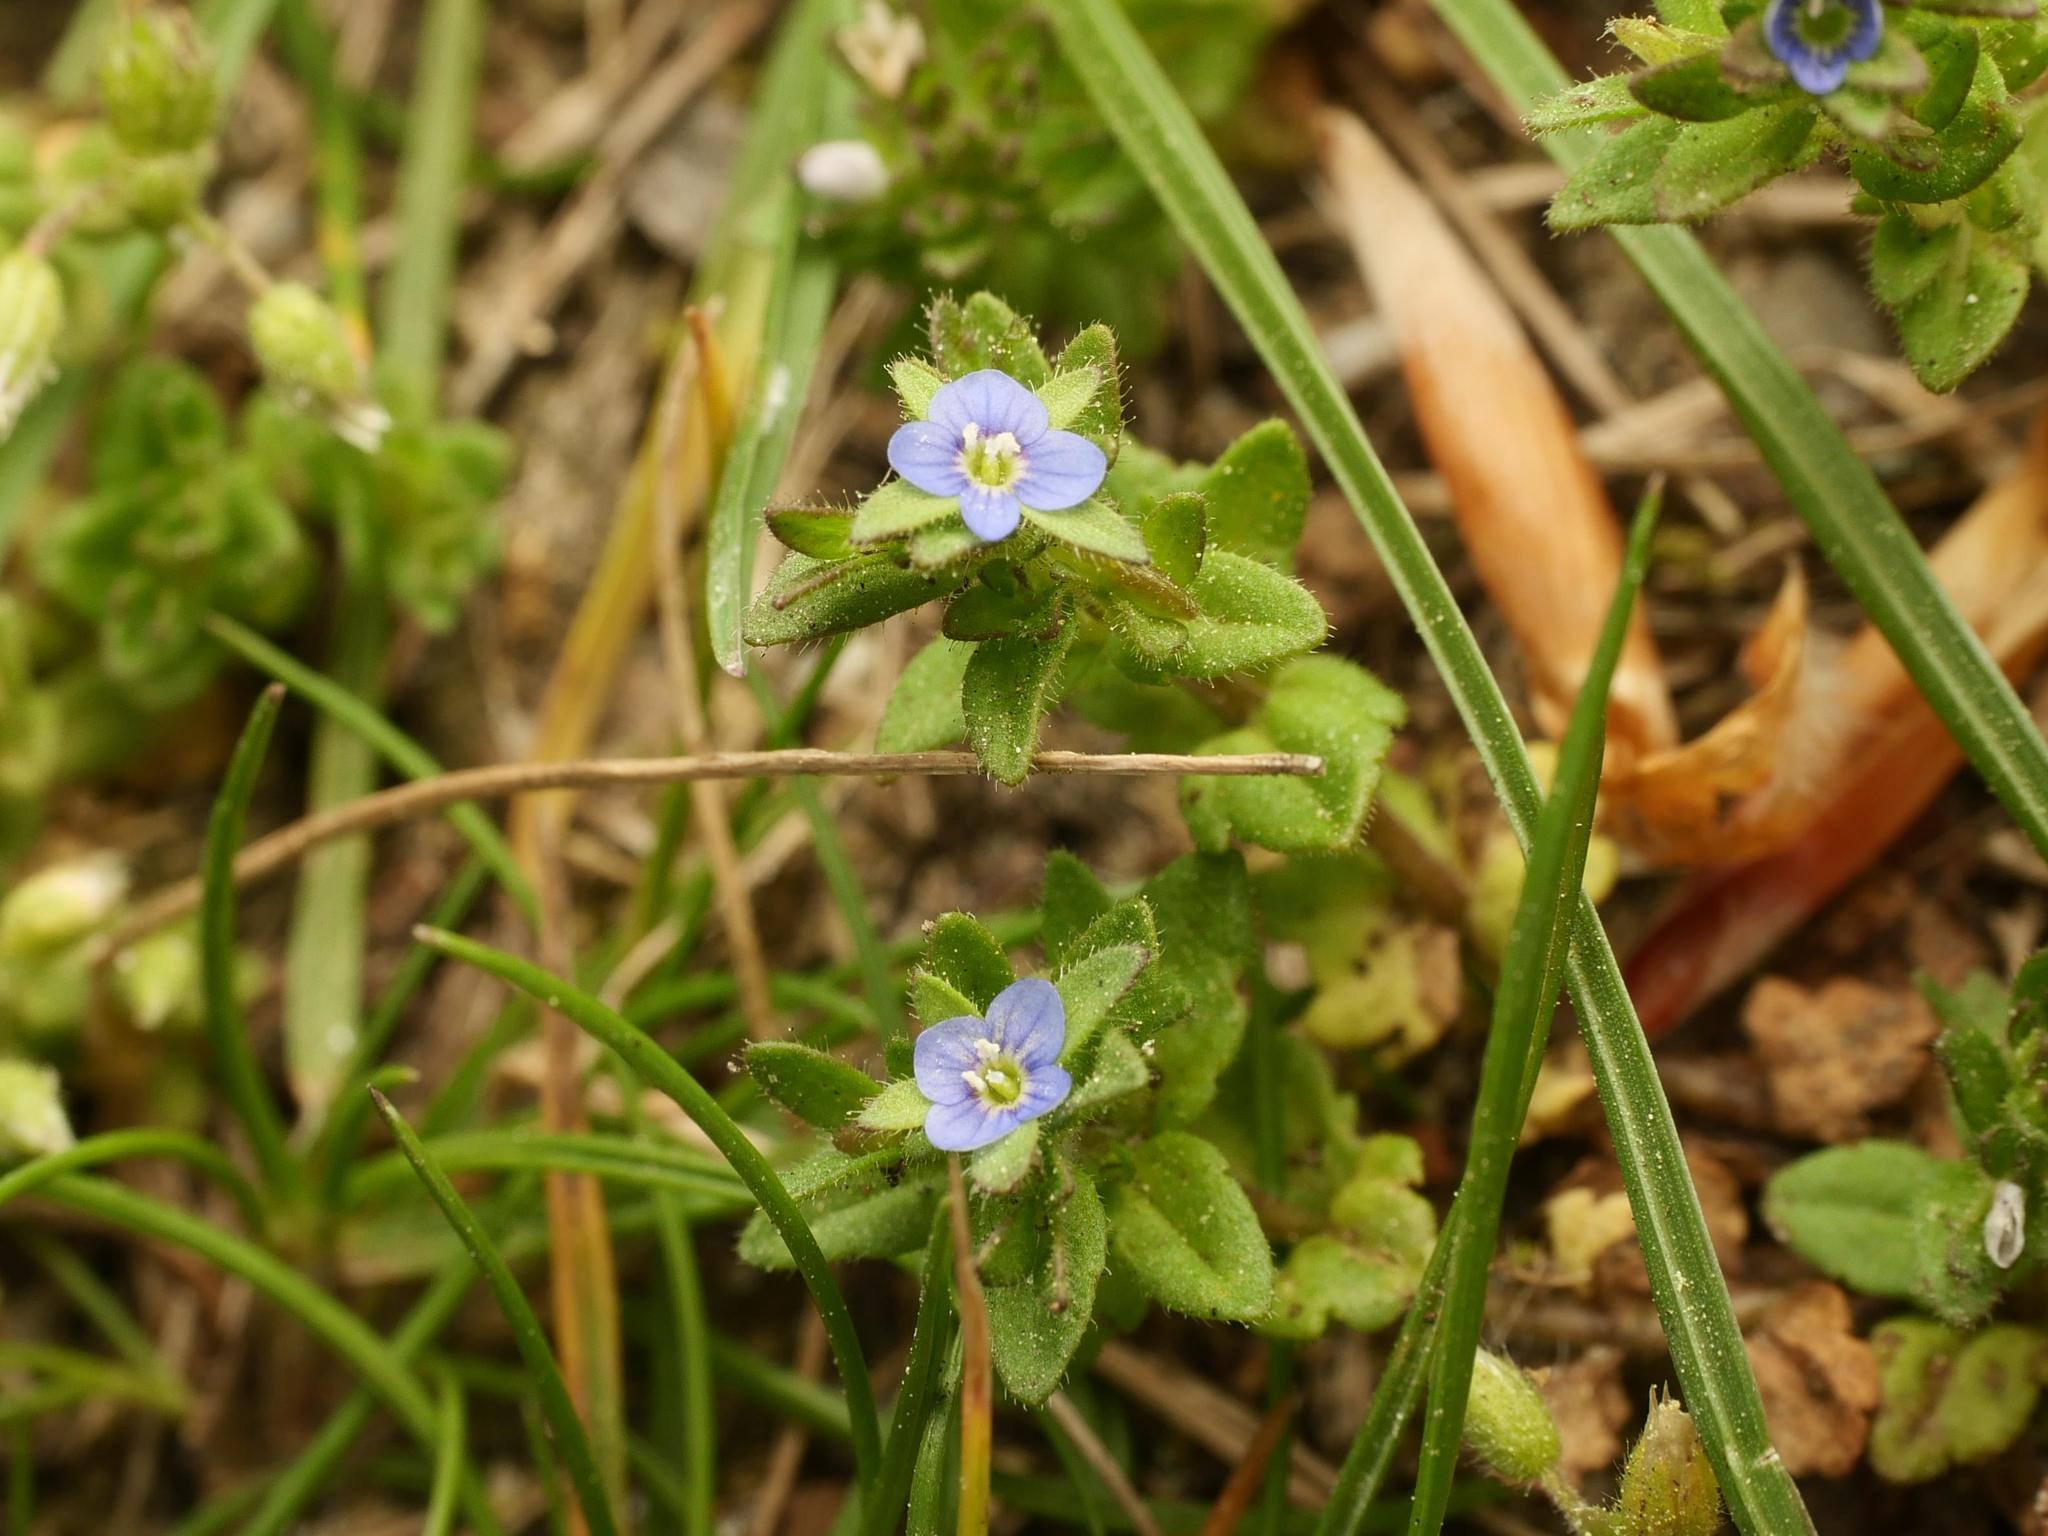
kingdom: Plantae
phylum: Tracheophyta
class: Magnoliopsida
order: Lamiales
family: Plantaginaceae
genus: Veronica
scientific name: Veronica arvensis
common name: Corn speedwell
